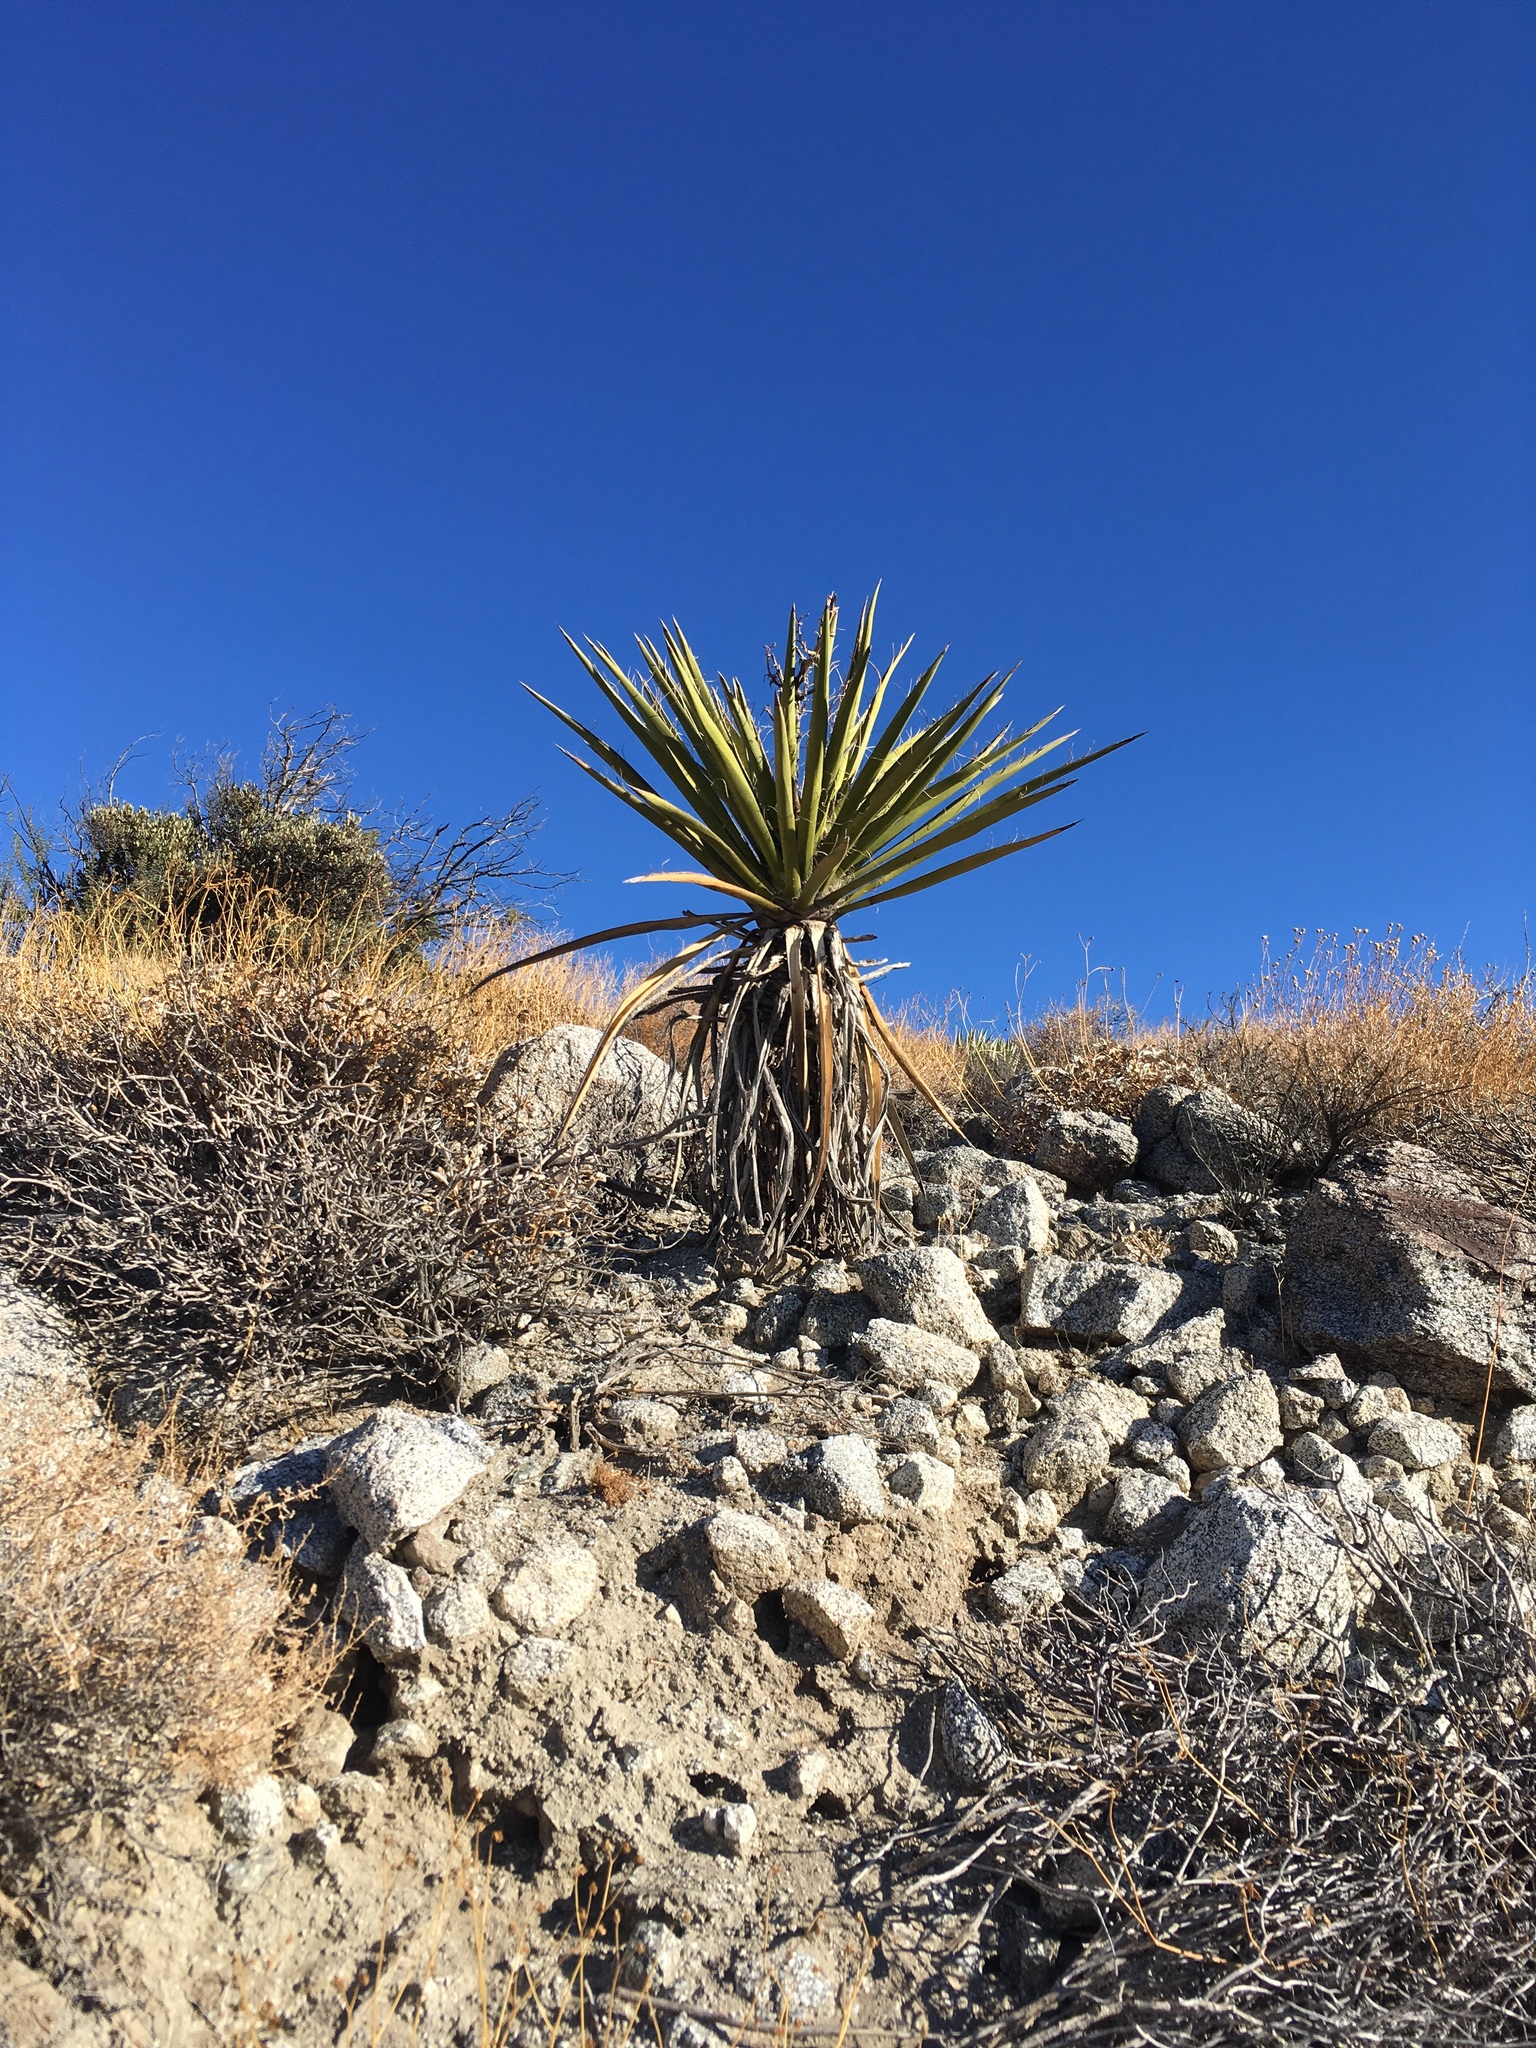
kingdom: Plantae
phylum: Tracheophyta
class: Liliopsida
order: Asparagales
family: Asparagaceae
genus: Yucca
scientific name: Yucca schidigera
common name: Mojave yucca
